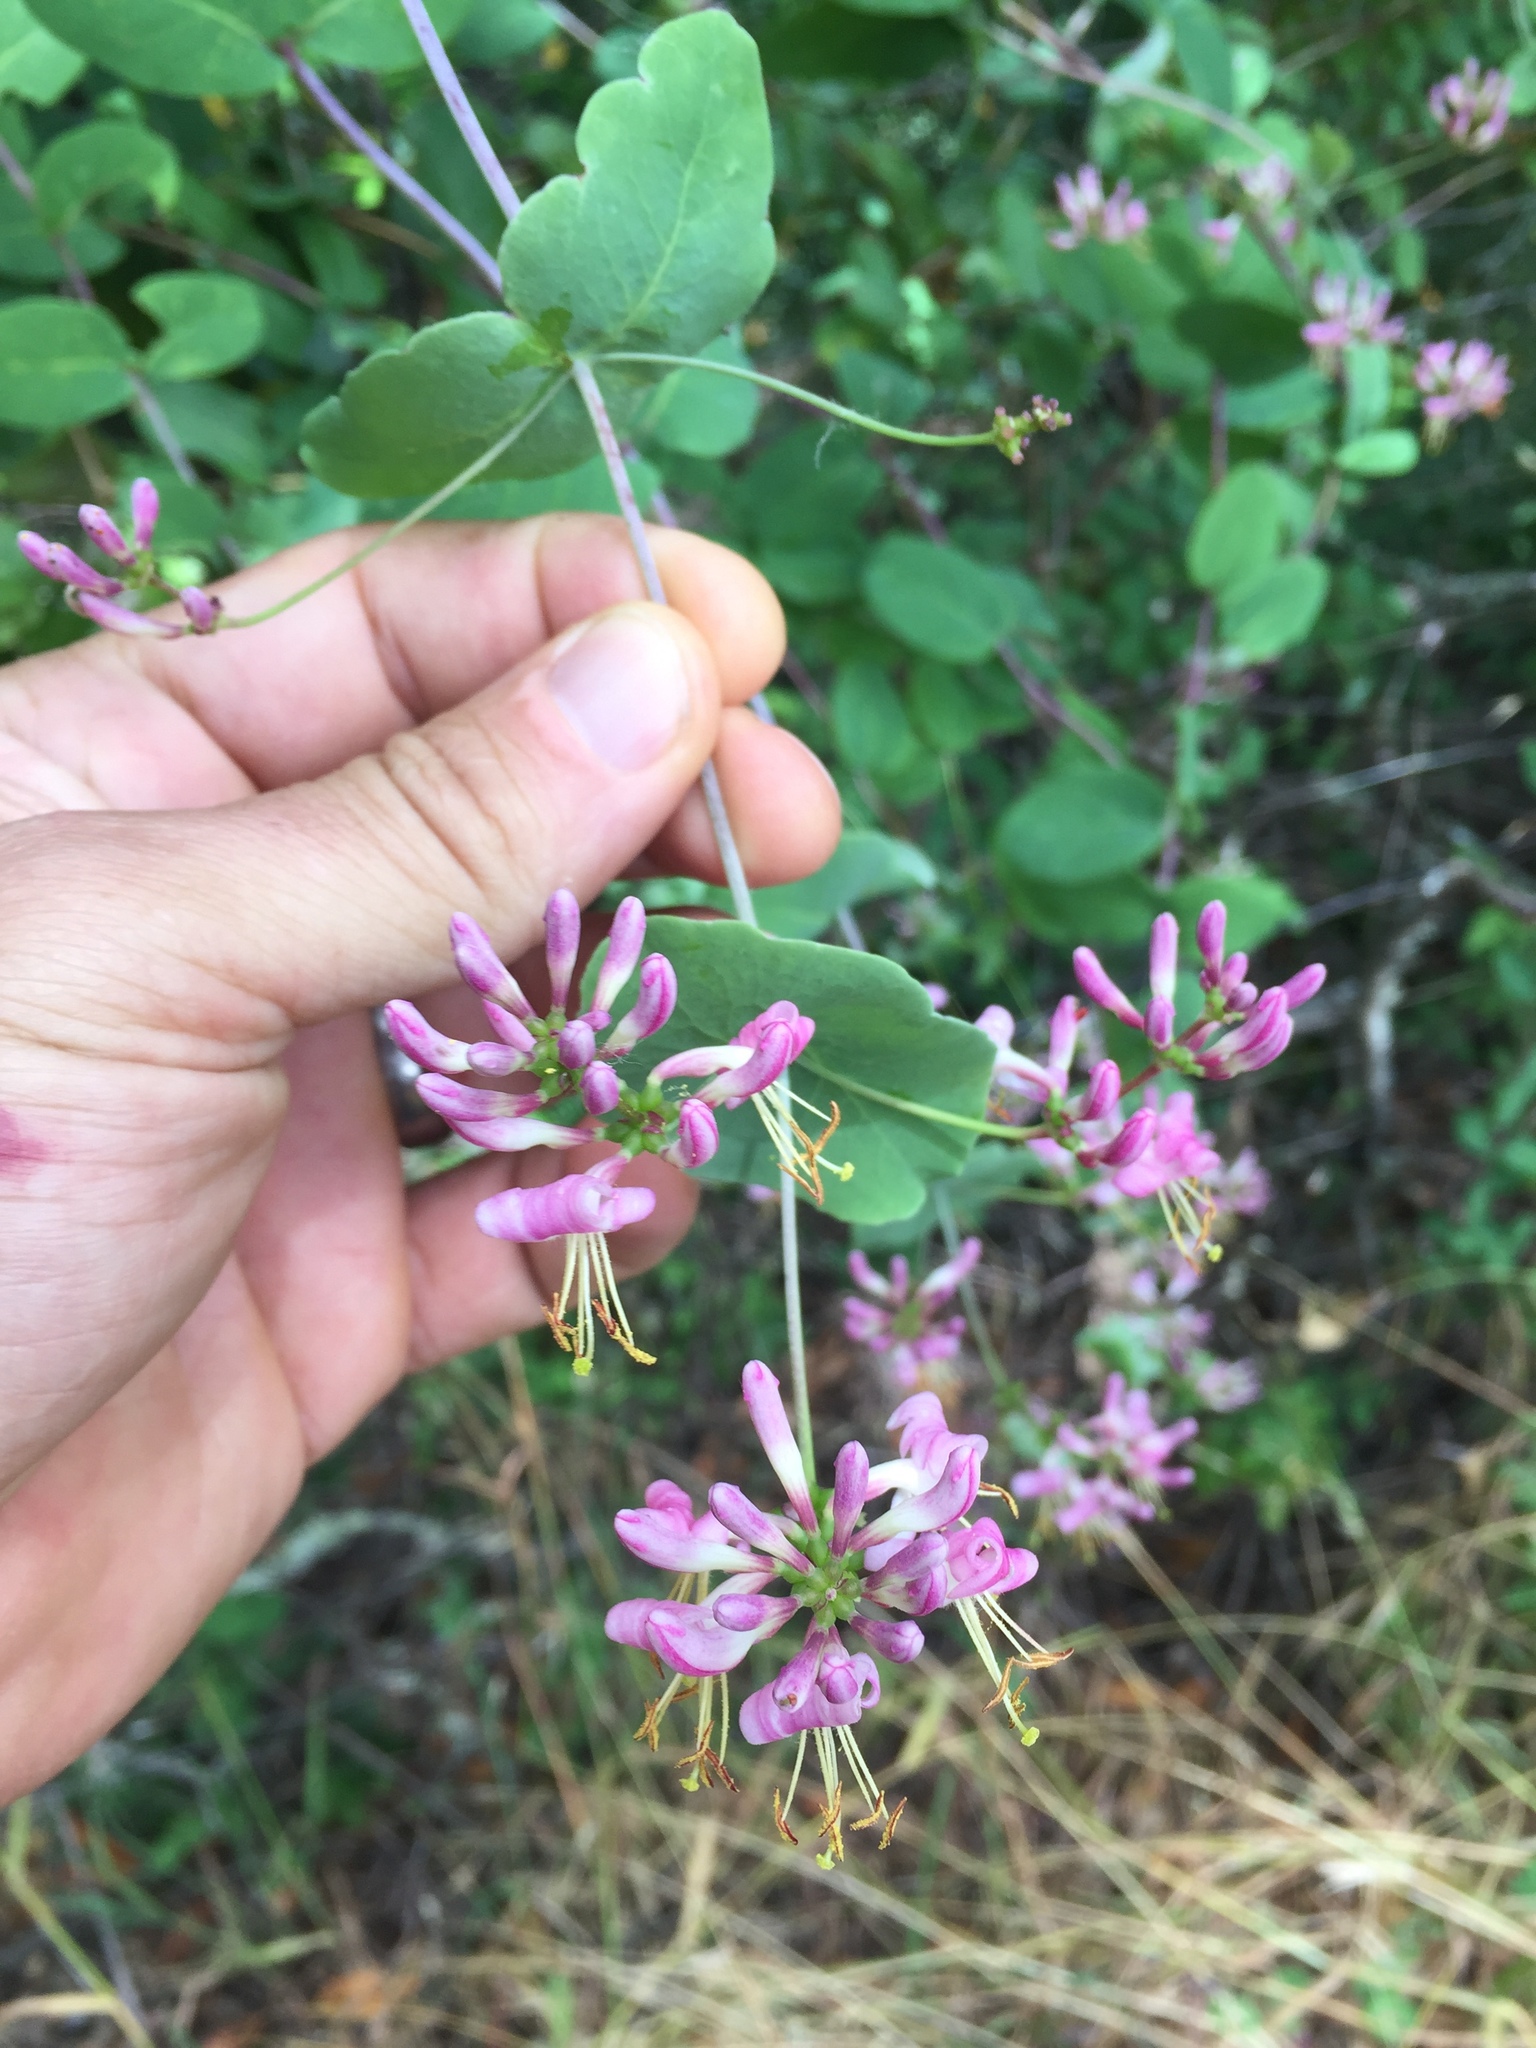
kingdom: Plantae
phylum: Tracheophyta
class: Magnoliopsida
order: Dipsacales
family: Caprifoliaceae
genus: Lonicera
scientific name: Lonicera hispidula
